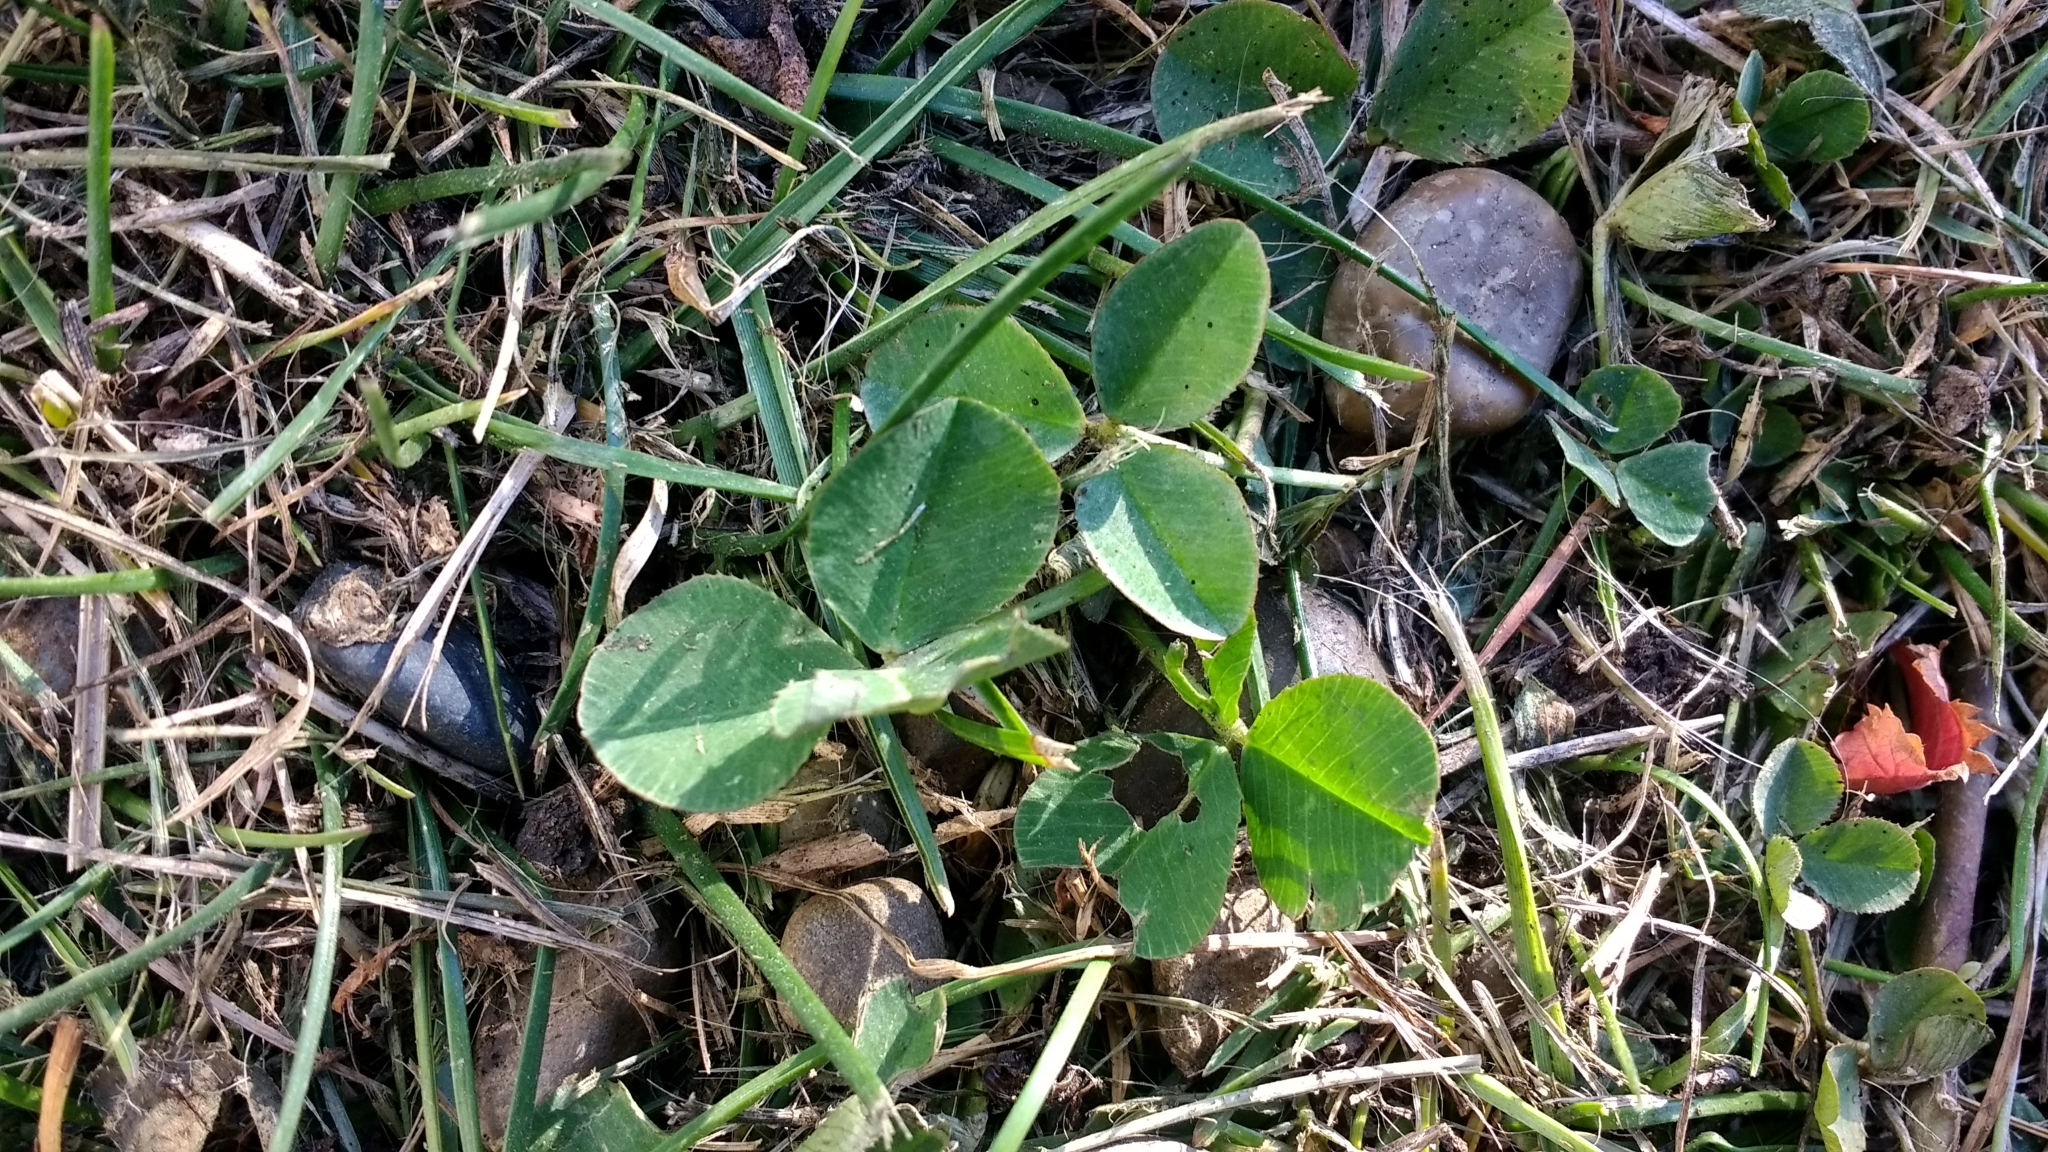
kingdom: Plantae
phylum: Tracheophyta
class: Magnoliopsida
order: Fabales
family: Fabaceae
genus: Trifolium
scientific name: Trifolium repens
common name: White clover
